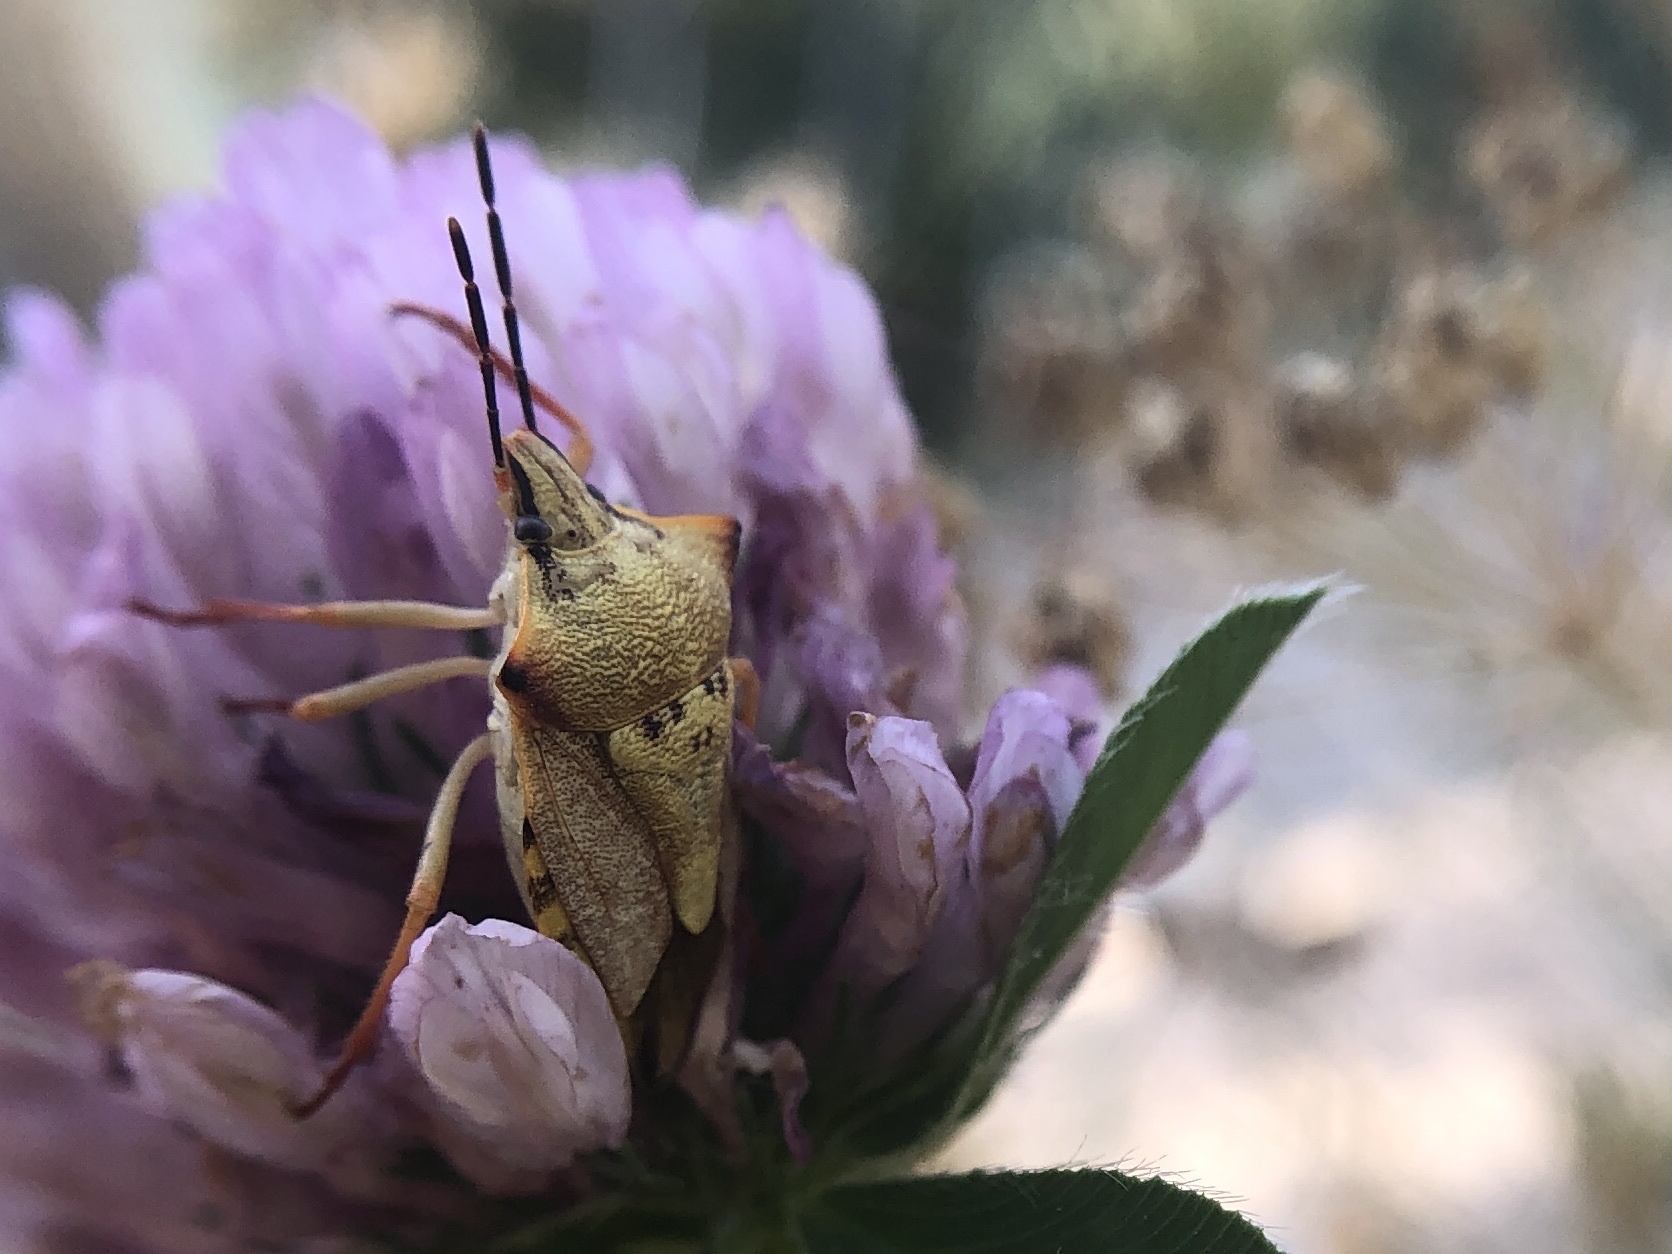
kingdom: Animalia
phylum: Arthropoda
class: Insecta
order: Hemiptera
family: Pentatomidae
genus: Carpocoris
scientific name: Carpocoris mediterraneus
